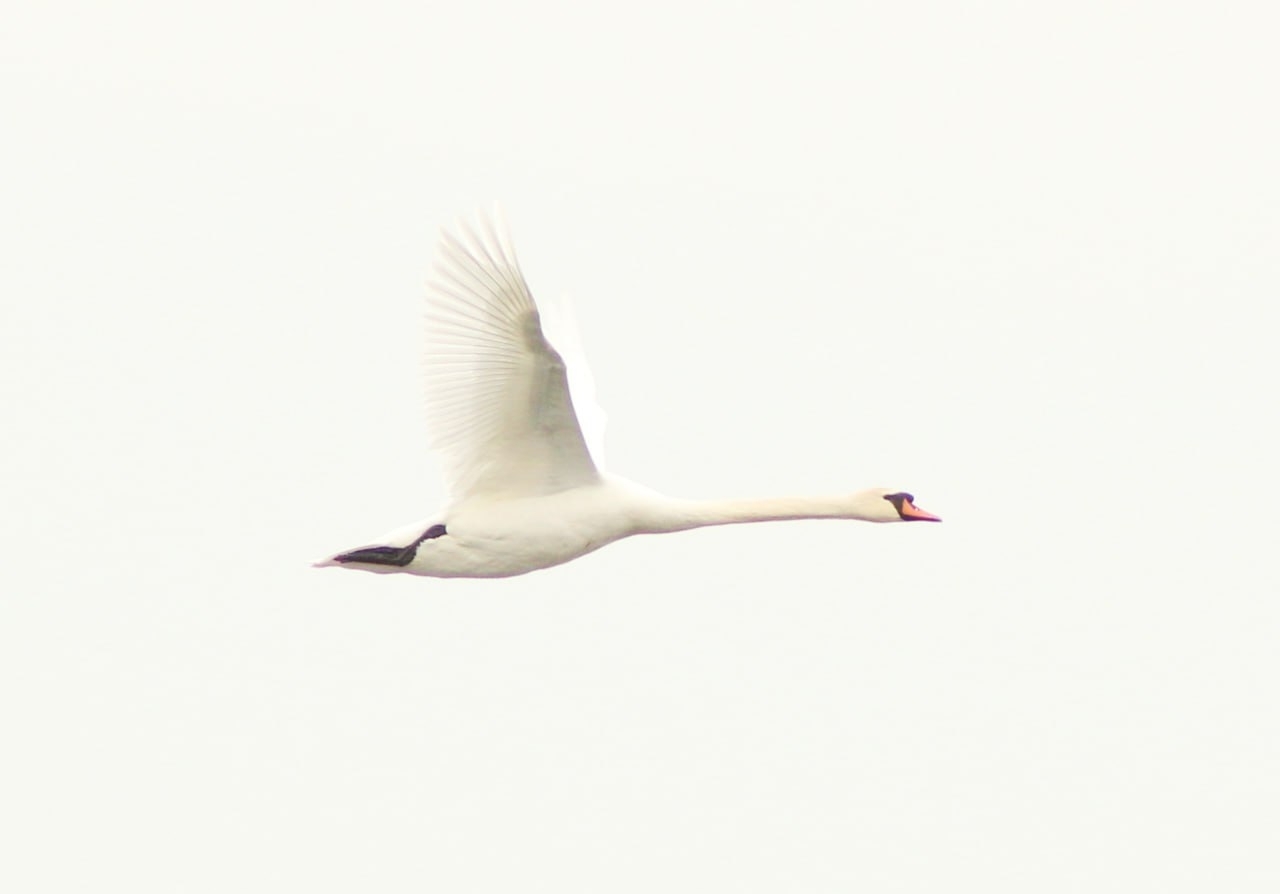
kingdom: Animalia
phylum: Chordata
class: Aves
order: Anseriformes
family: Anatidae
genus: Cygnus
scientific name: Cygnus olor
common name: Mute swan
